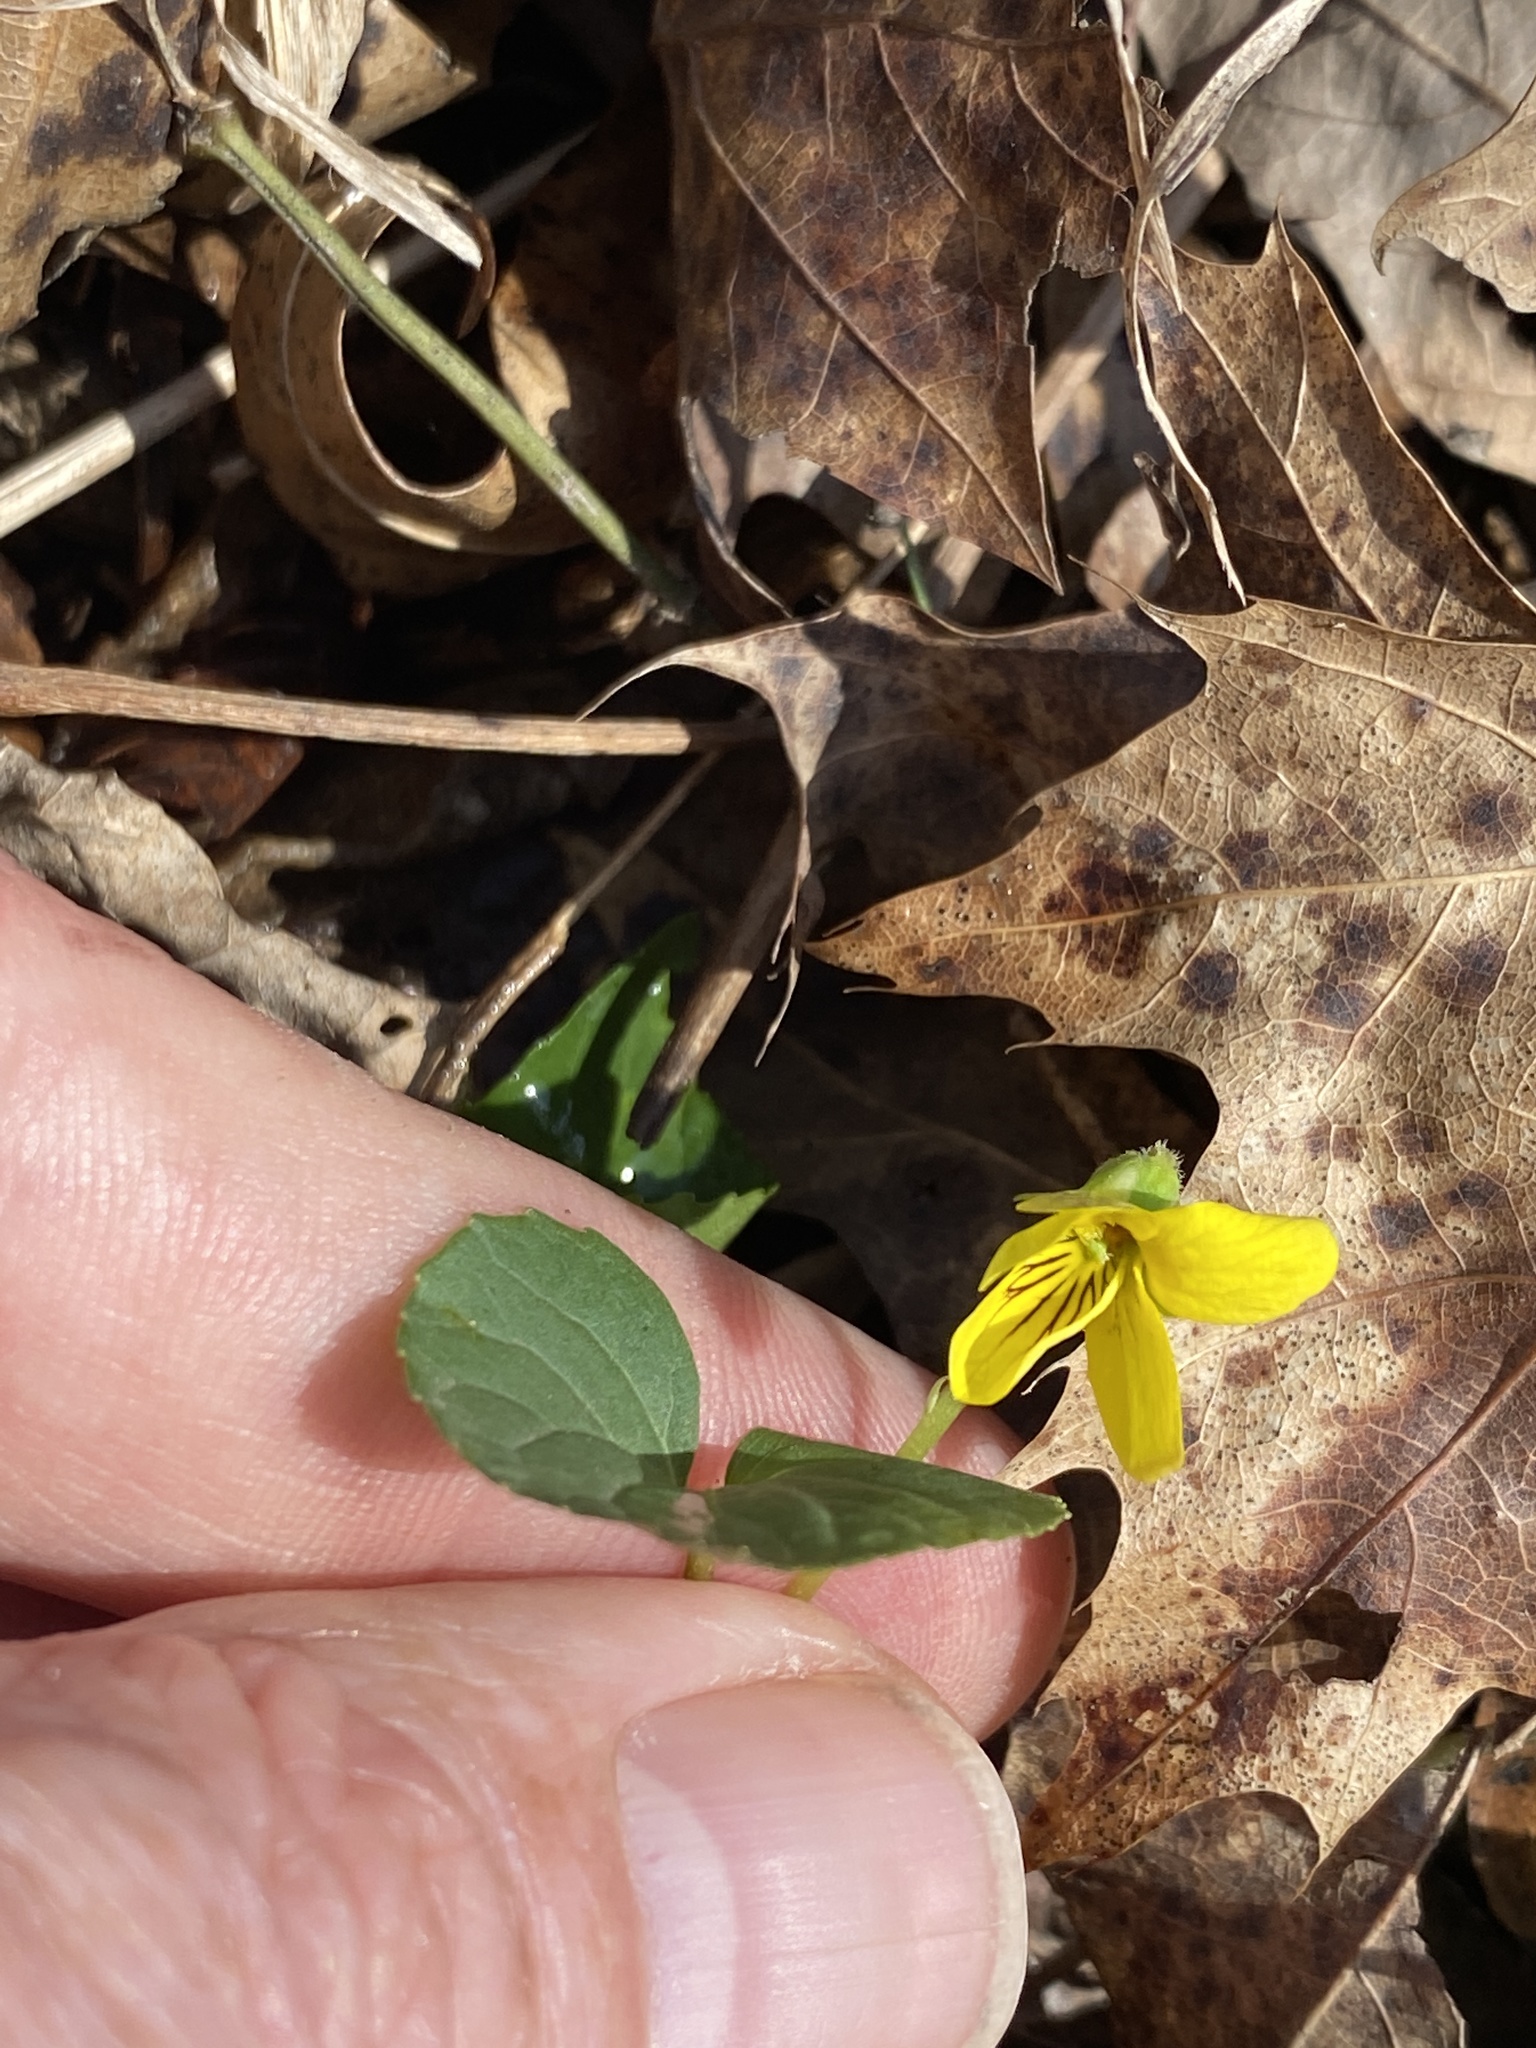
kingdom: Plantae
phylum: Tracheophyta
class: Magnoliopsida
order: Malpighiales
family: Violaceae
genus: Viola
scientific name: Viola eriocarpa
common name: Smooth yellow violet
